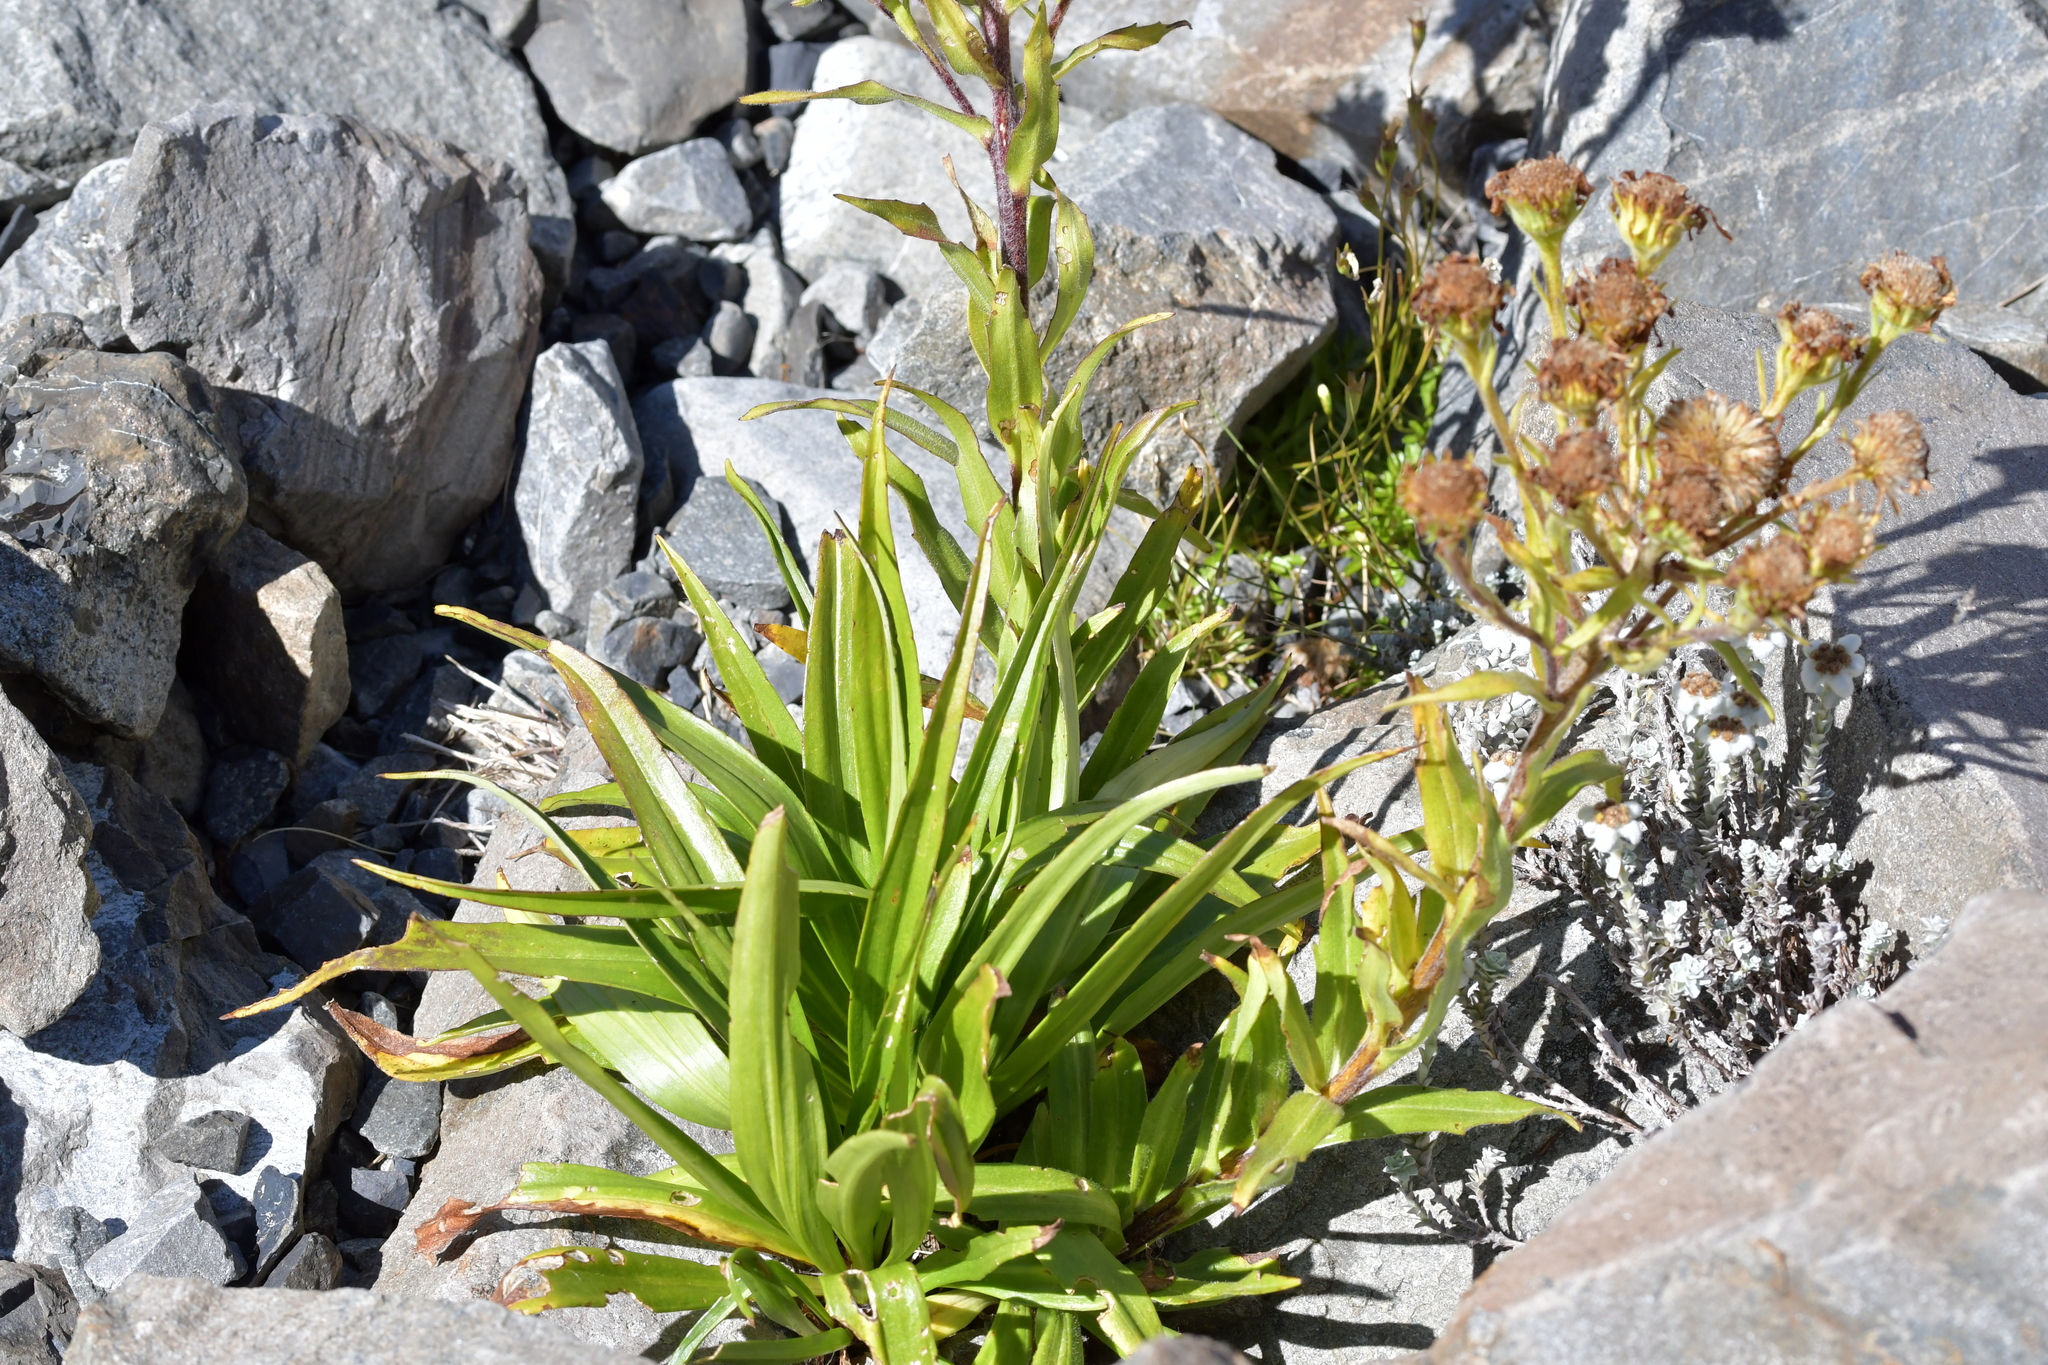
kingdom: Plantae
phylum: Tracheophyta
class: Magnoliopsida
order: Asterales
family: Asteraceae
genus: Dolichoglottis
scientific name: Dolichoglottis scorzoneroides
